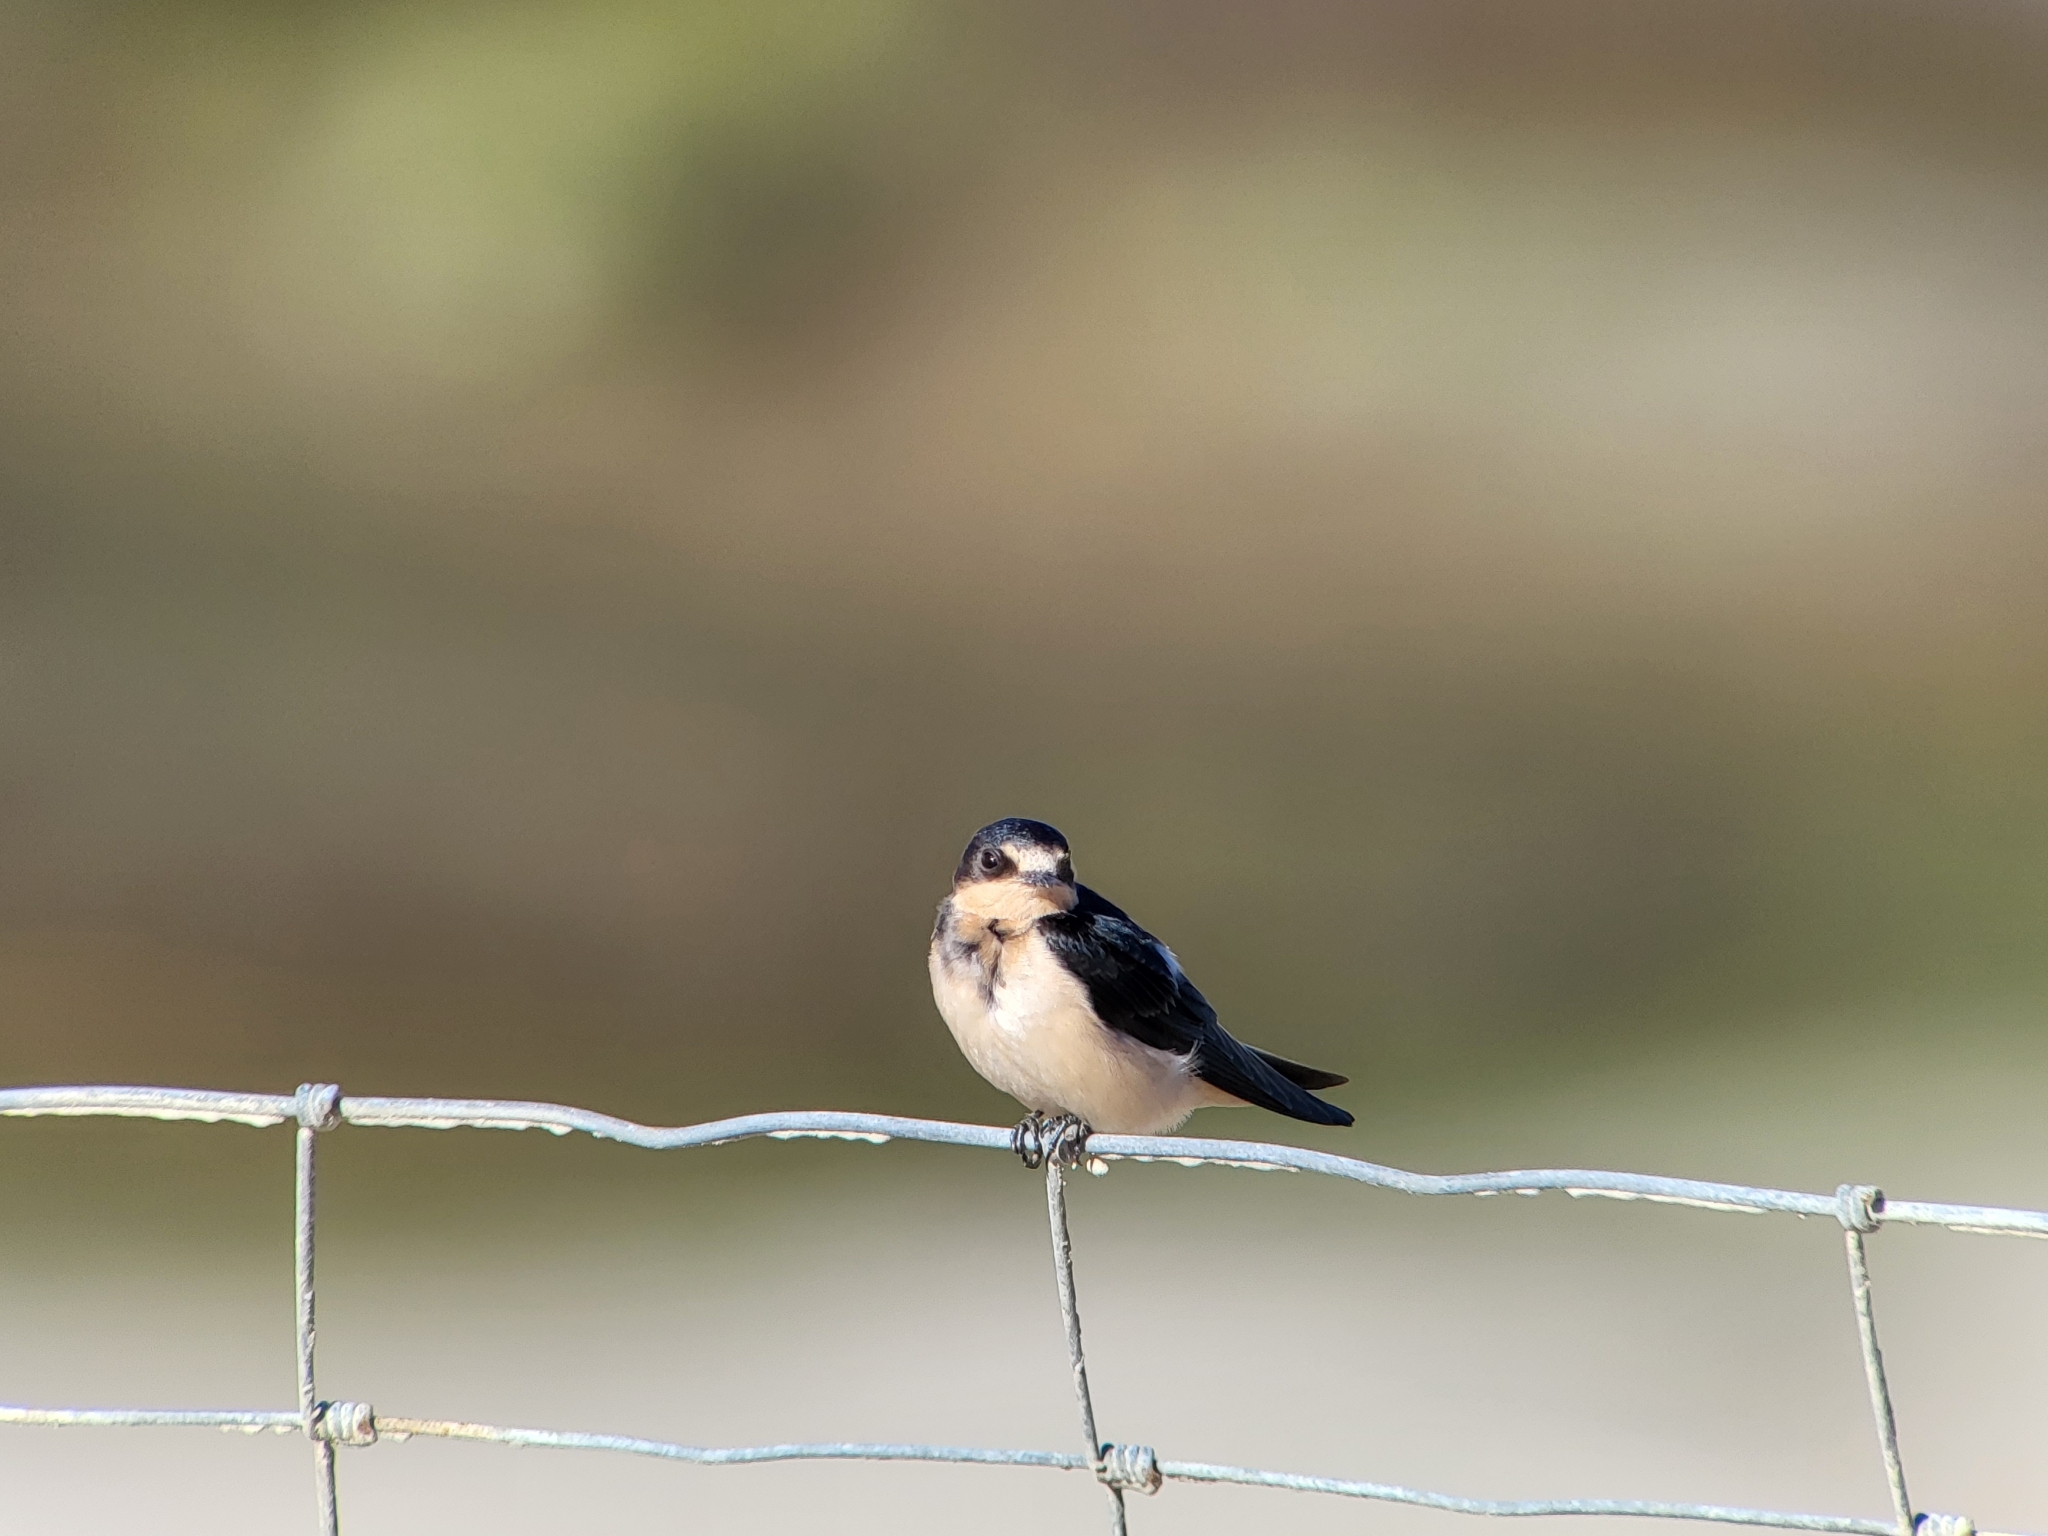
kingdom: Animalia
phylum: Chordata
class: Aves
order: Passeriformes
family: Hirundinidae
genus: Hirundo
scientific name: Hirundo rustica
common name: Barn swallow
